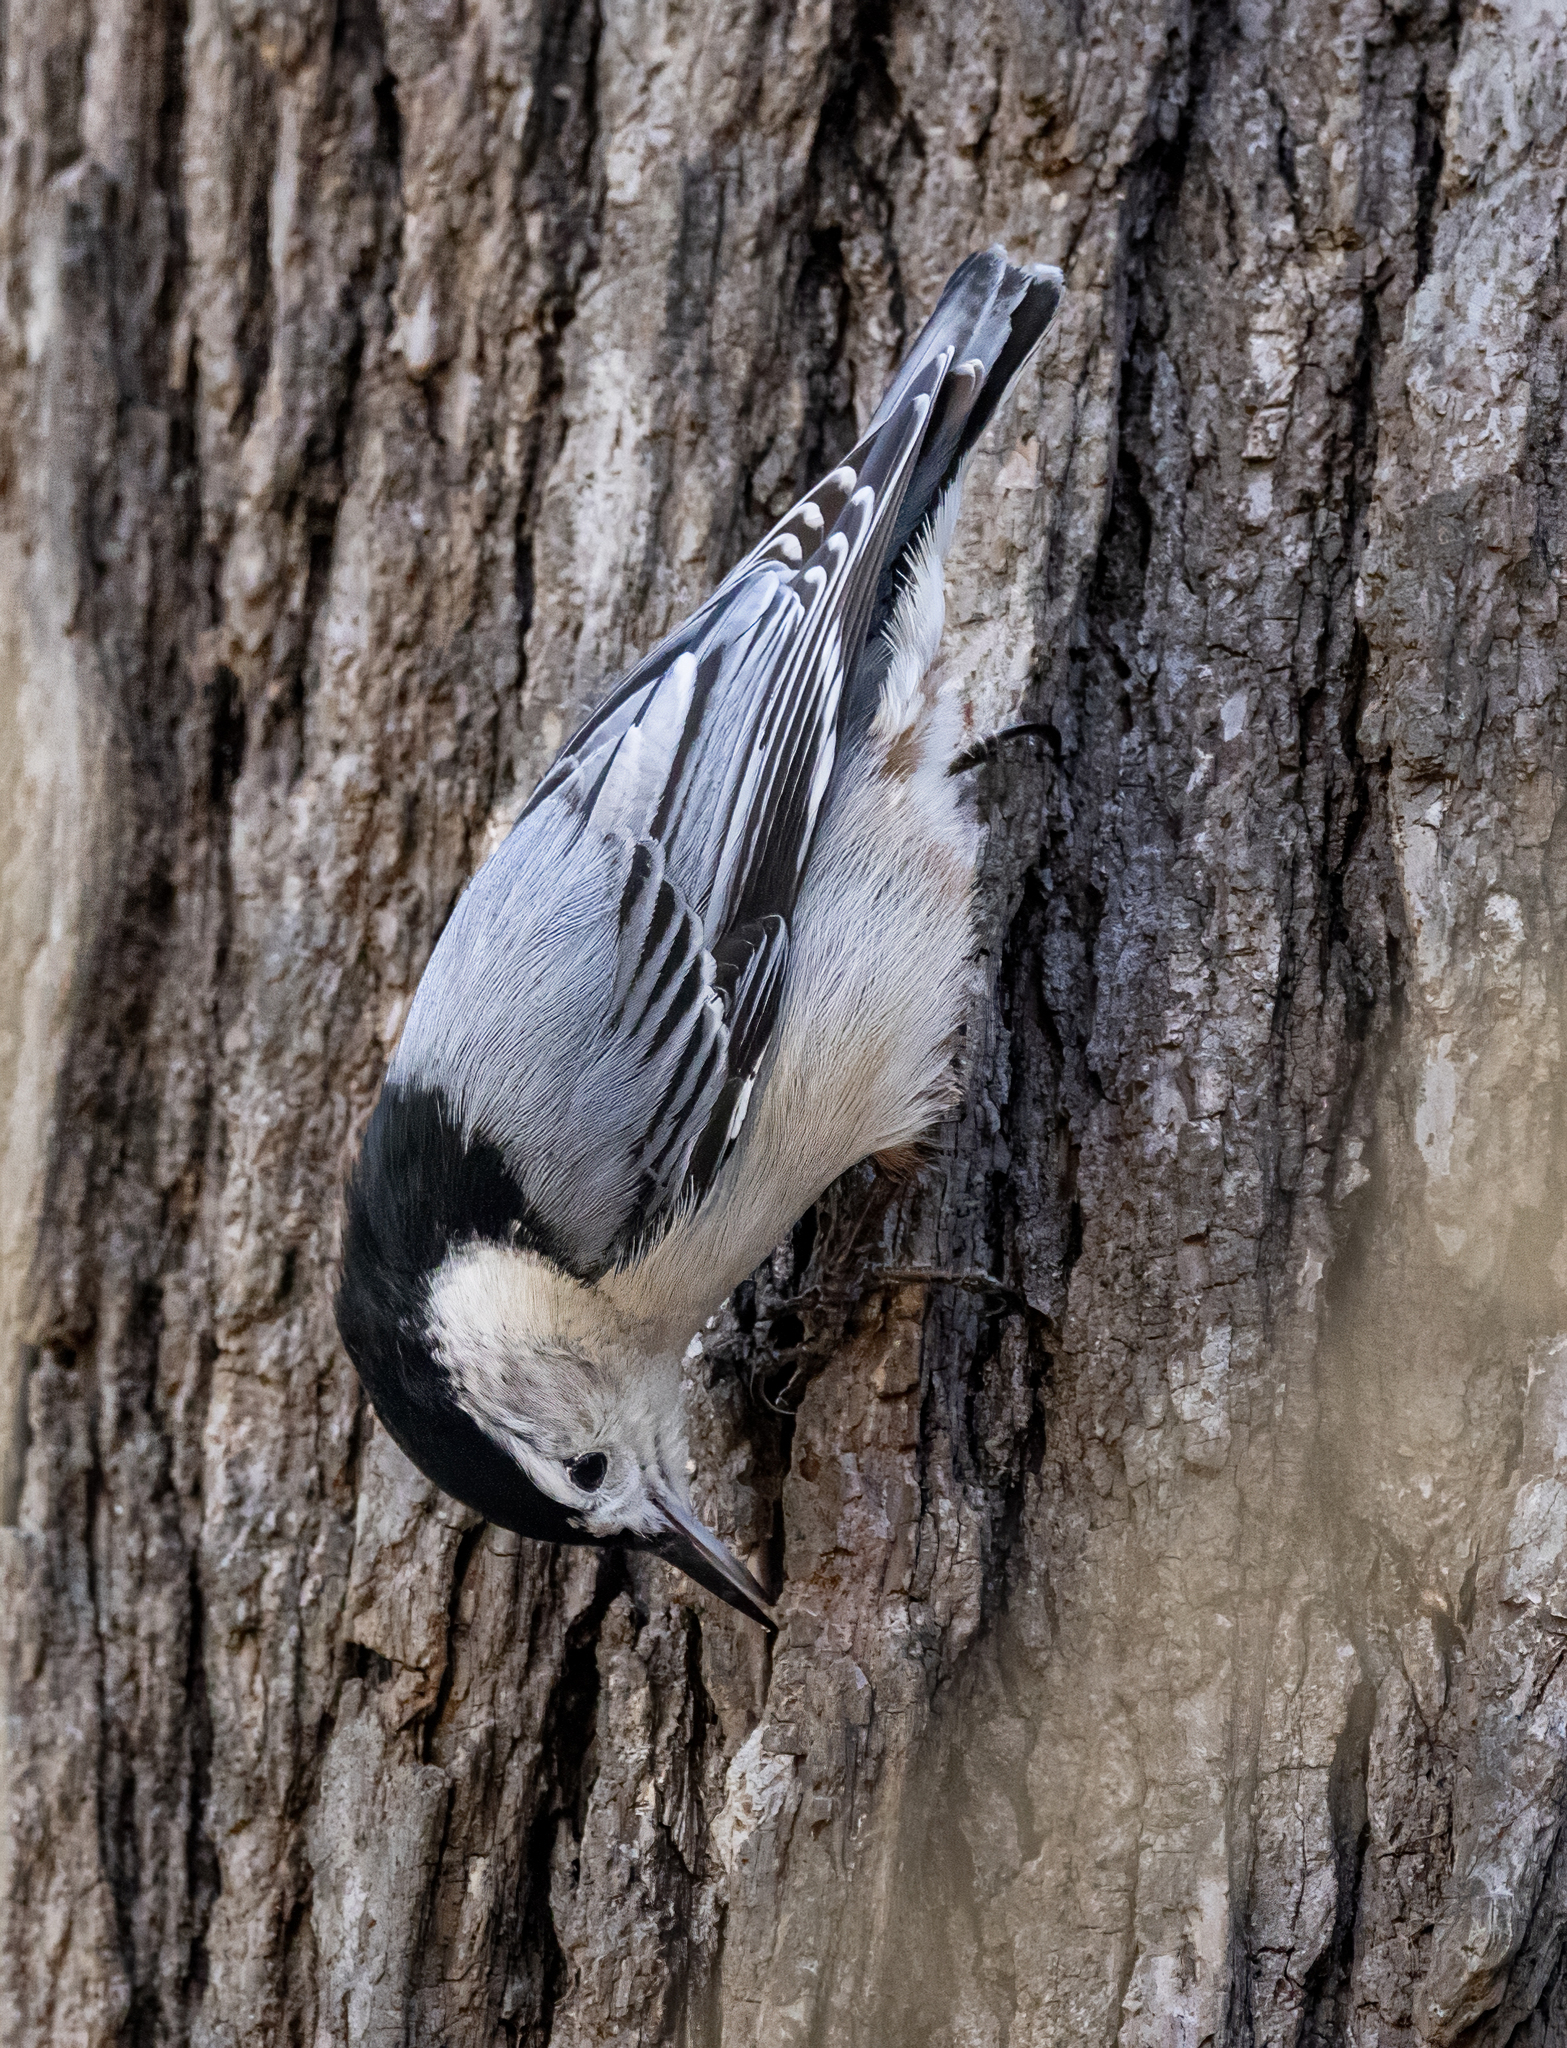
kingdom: Animalia
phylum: Chordata
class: Aves
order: Passeriformes
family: Sittidae
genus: Sitta
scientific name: Sitta carolinensis
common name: White-breasted nuthatch
